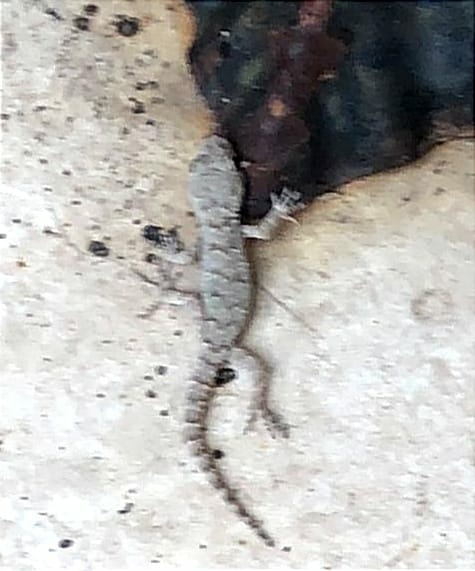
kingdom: Animalia
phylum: Chordata
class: Squamata
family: Gekkonidae
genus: Mediodactylus
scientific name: Mediodactylus danilewskii
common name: Bulgarian bent-toed gecko
